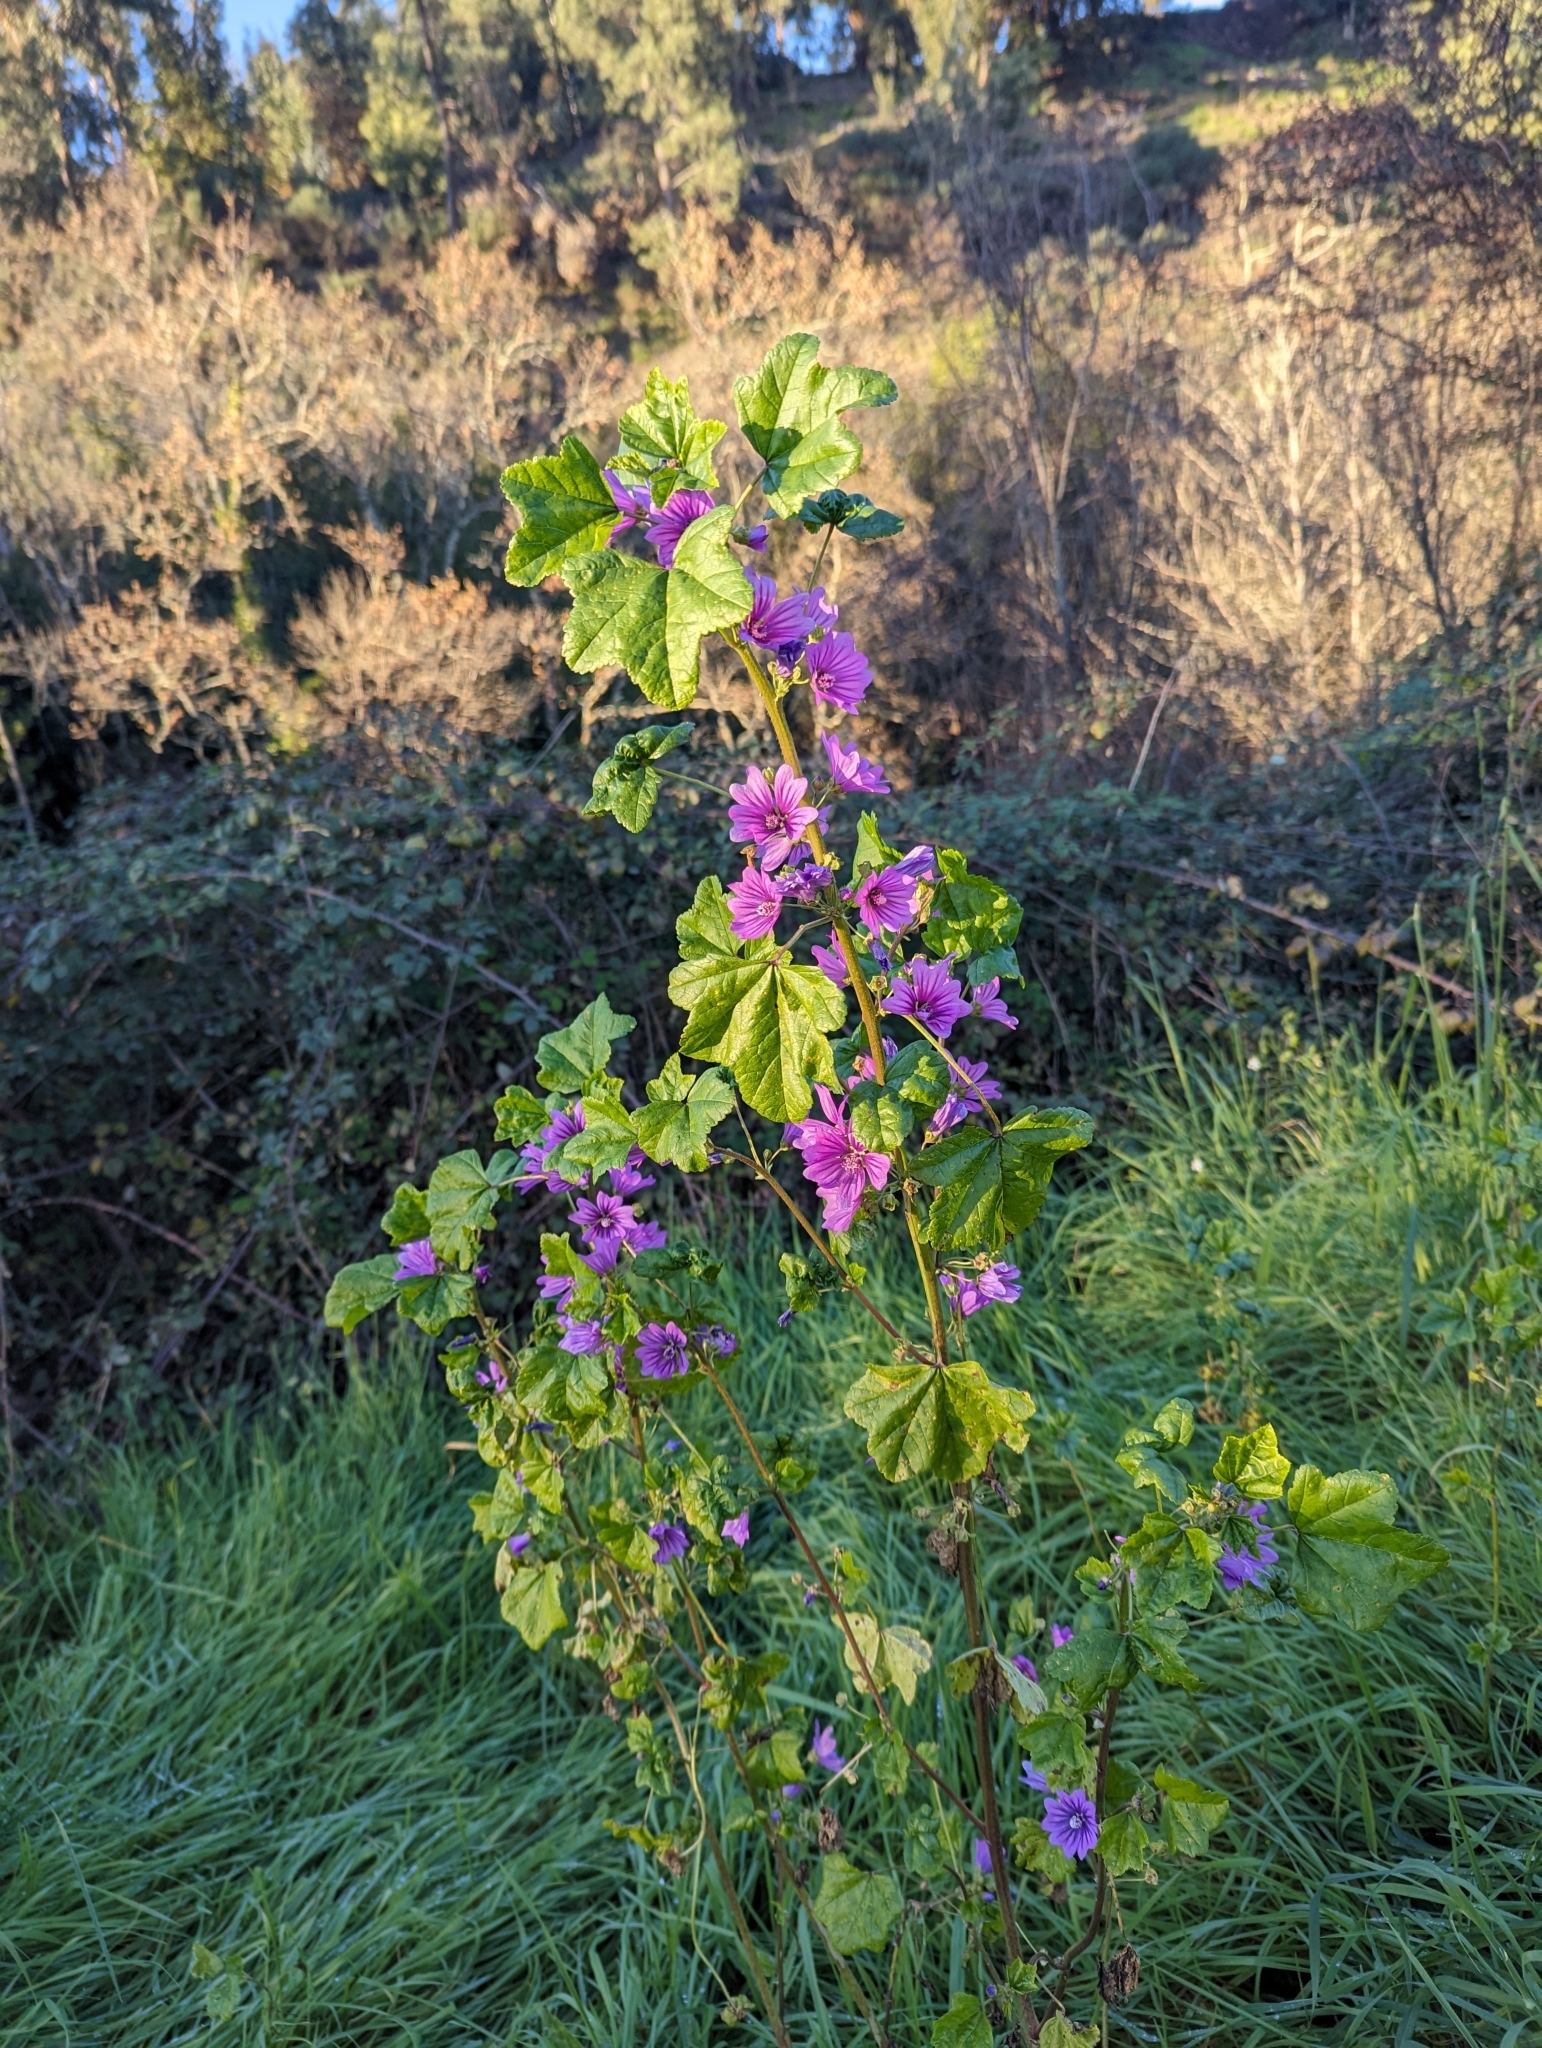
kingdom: Plantae
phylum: Tracheophyta
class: Magnoliopsida
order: Malvales
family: Malvaceae
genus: Malva
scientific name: Malva sylvestris
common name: Common mallow
